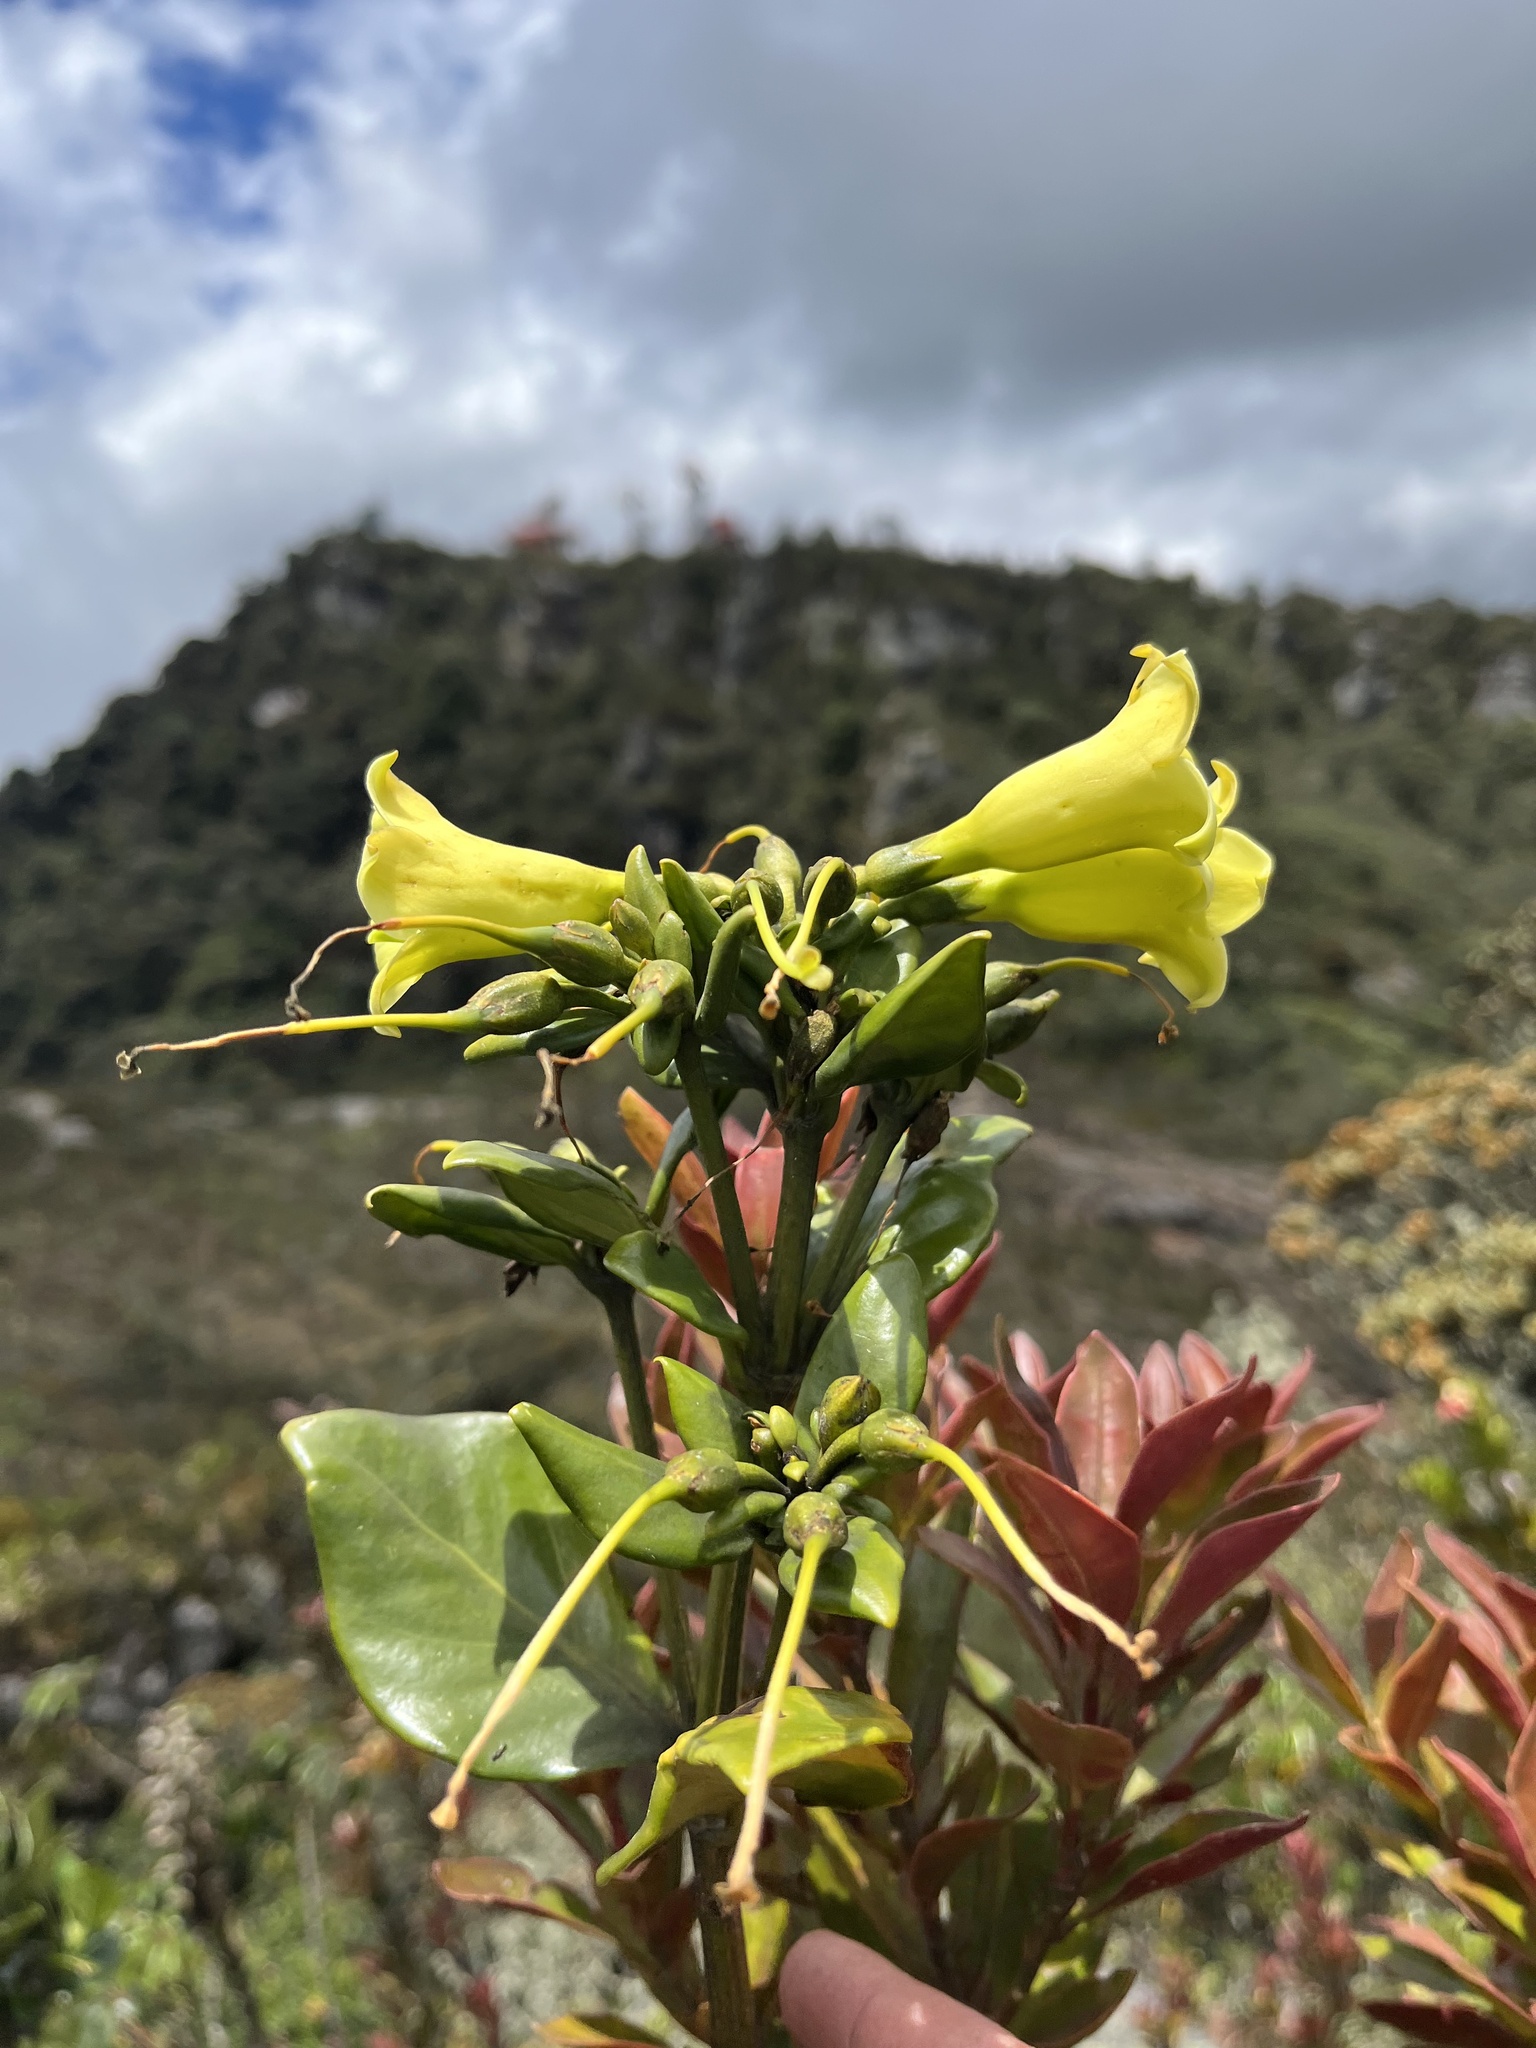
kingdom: Plantae
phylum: Tracheophyta
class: Magnoliopsida
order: Gentianales
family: Gentianaceae
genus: Macrocarpaea
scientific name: Macrocarpaea glabra
